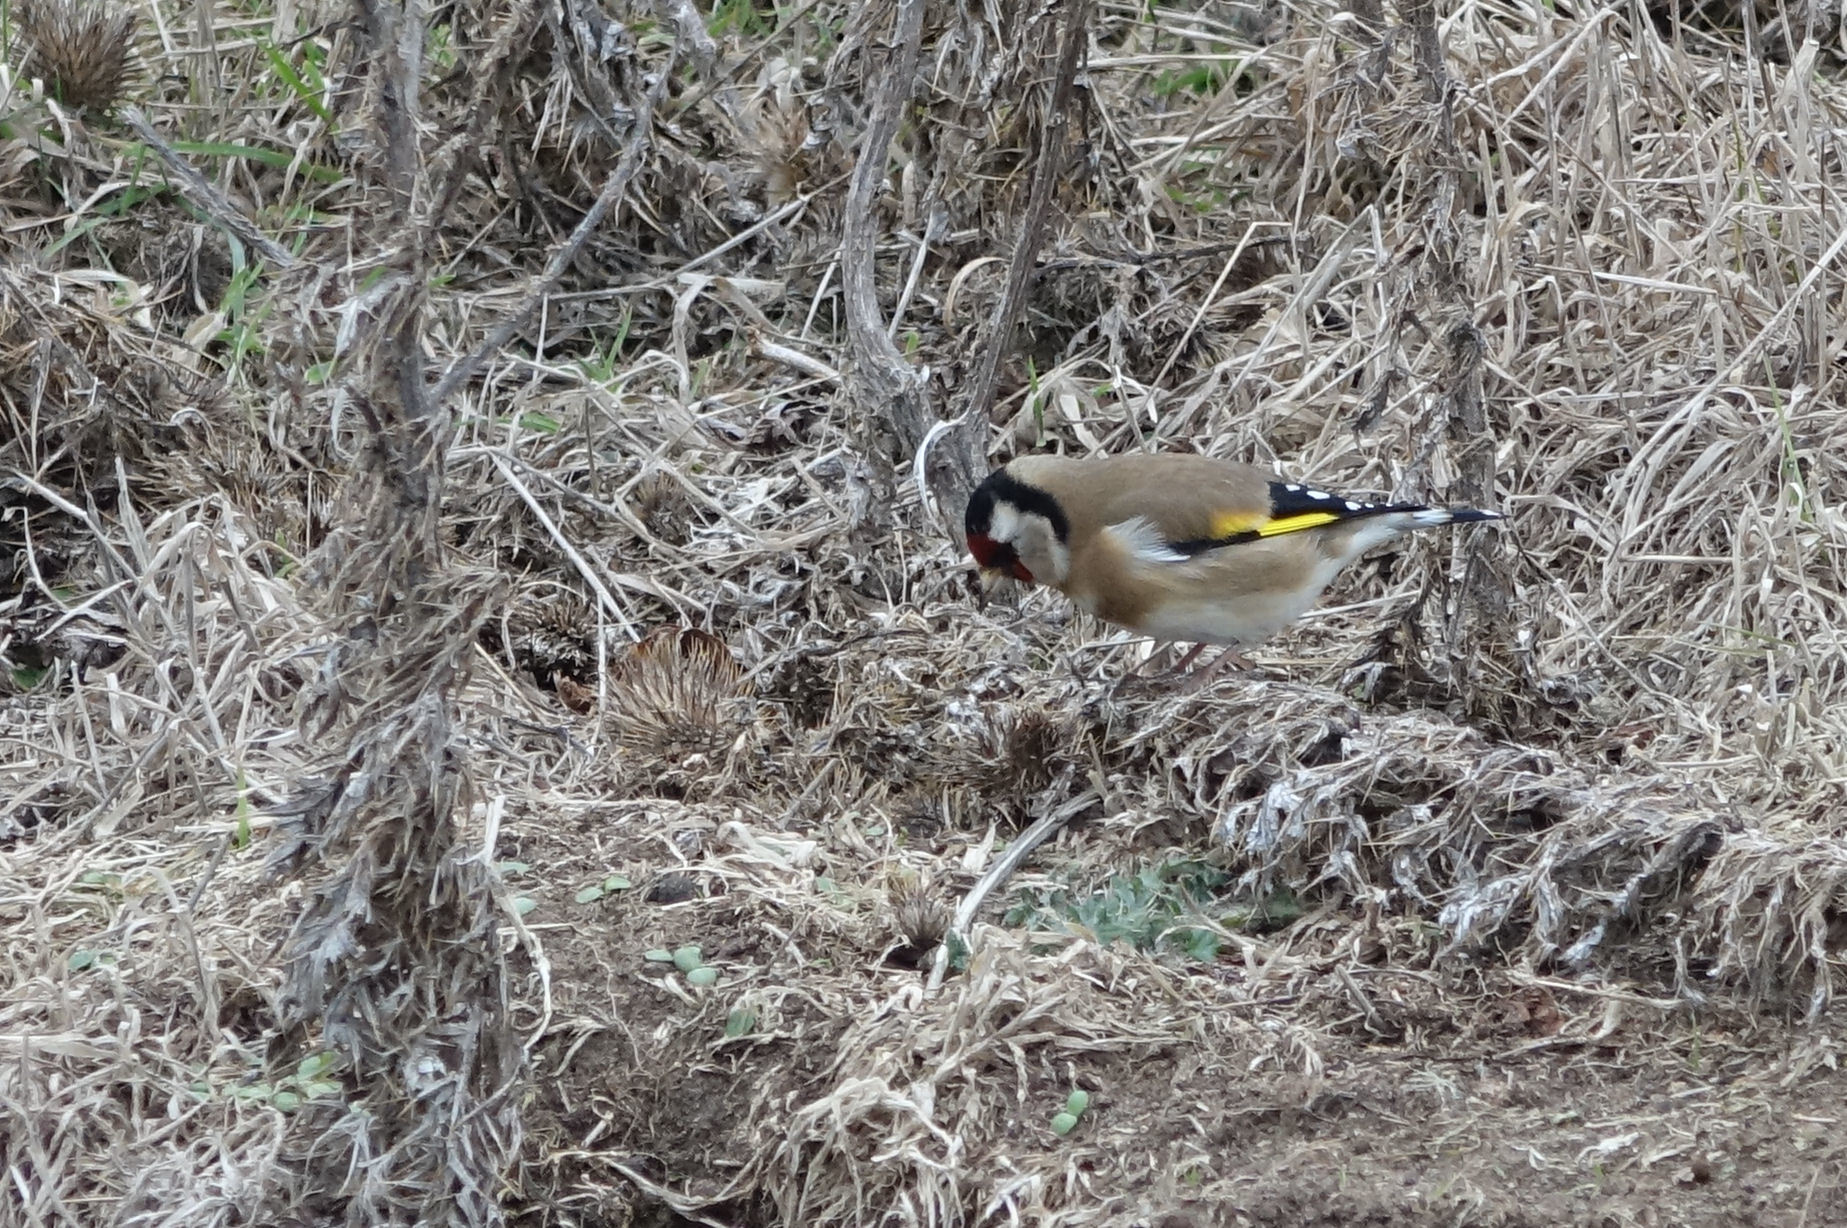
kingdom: Animalia
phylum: Chordata
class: Aves
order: Passeriformes
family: Fringillidae
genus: Carduelis
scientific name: Carduelis carduelis
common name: European goldfinch
